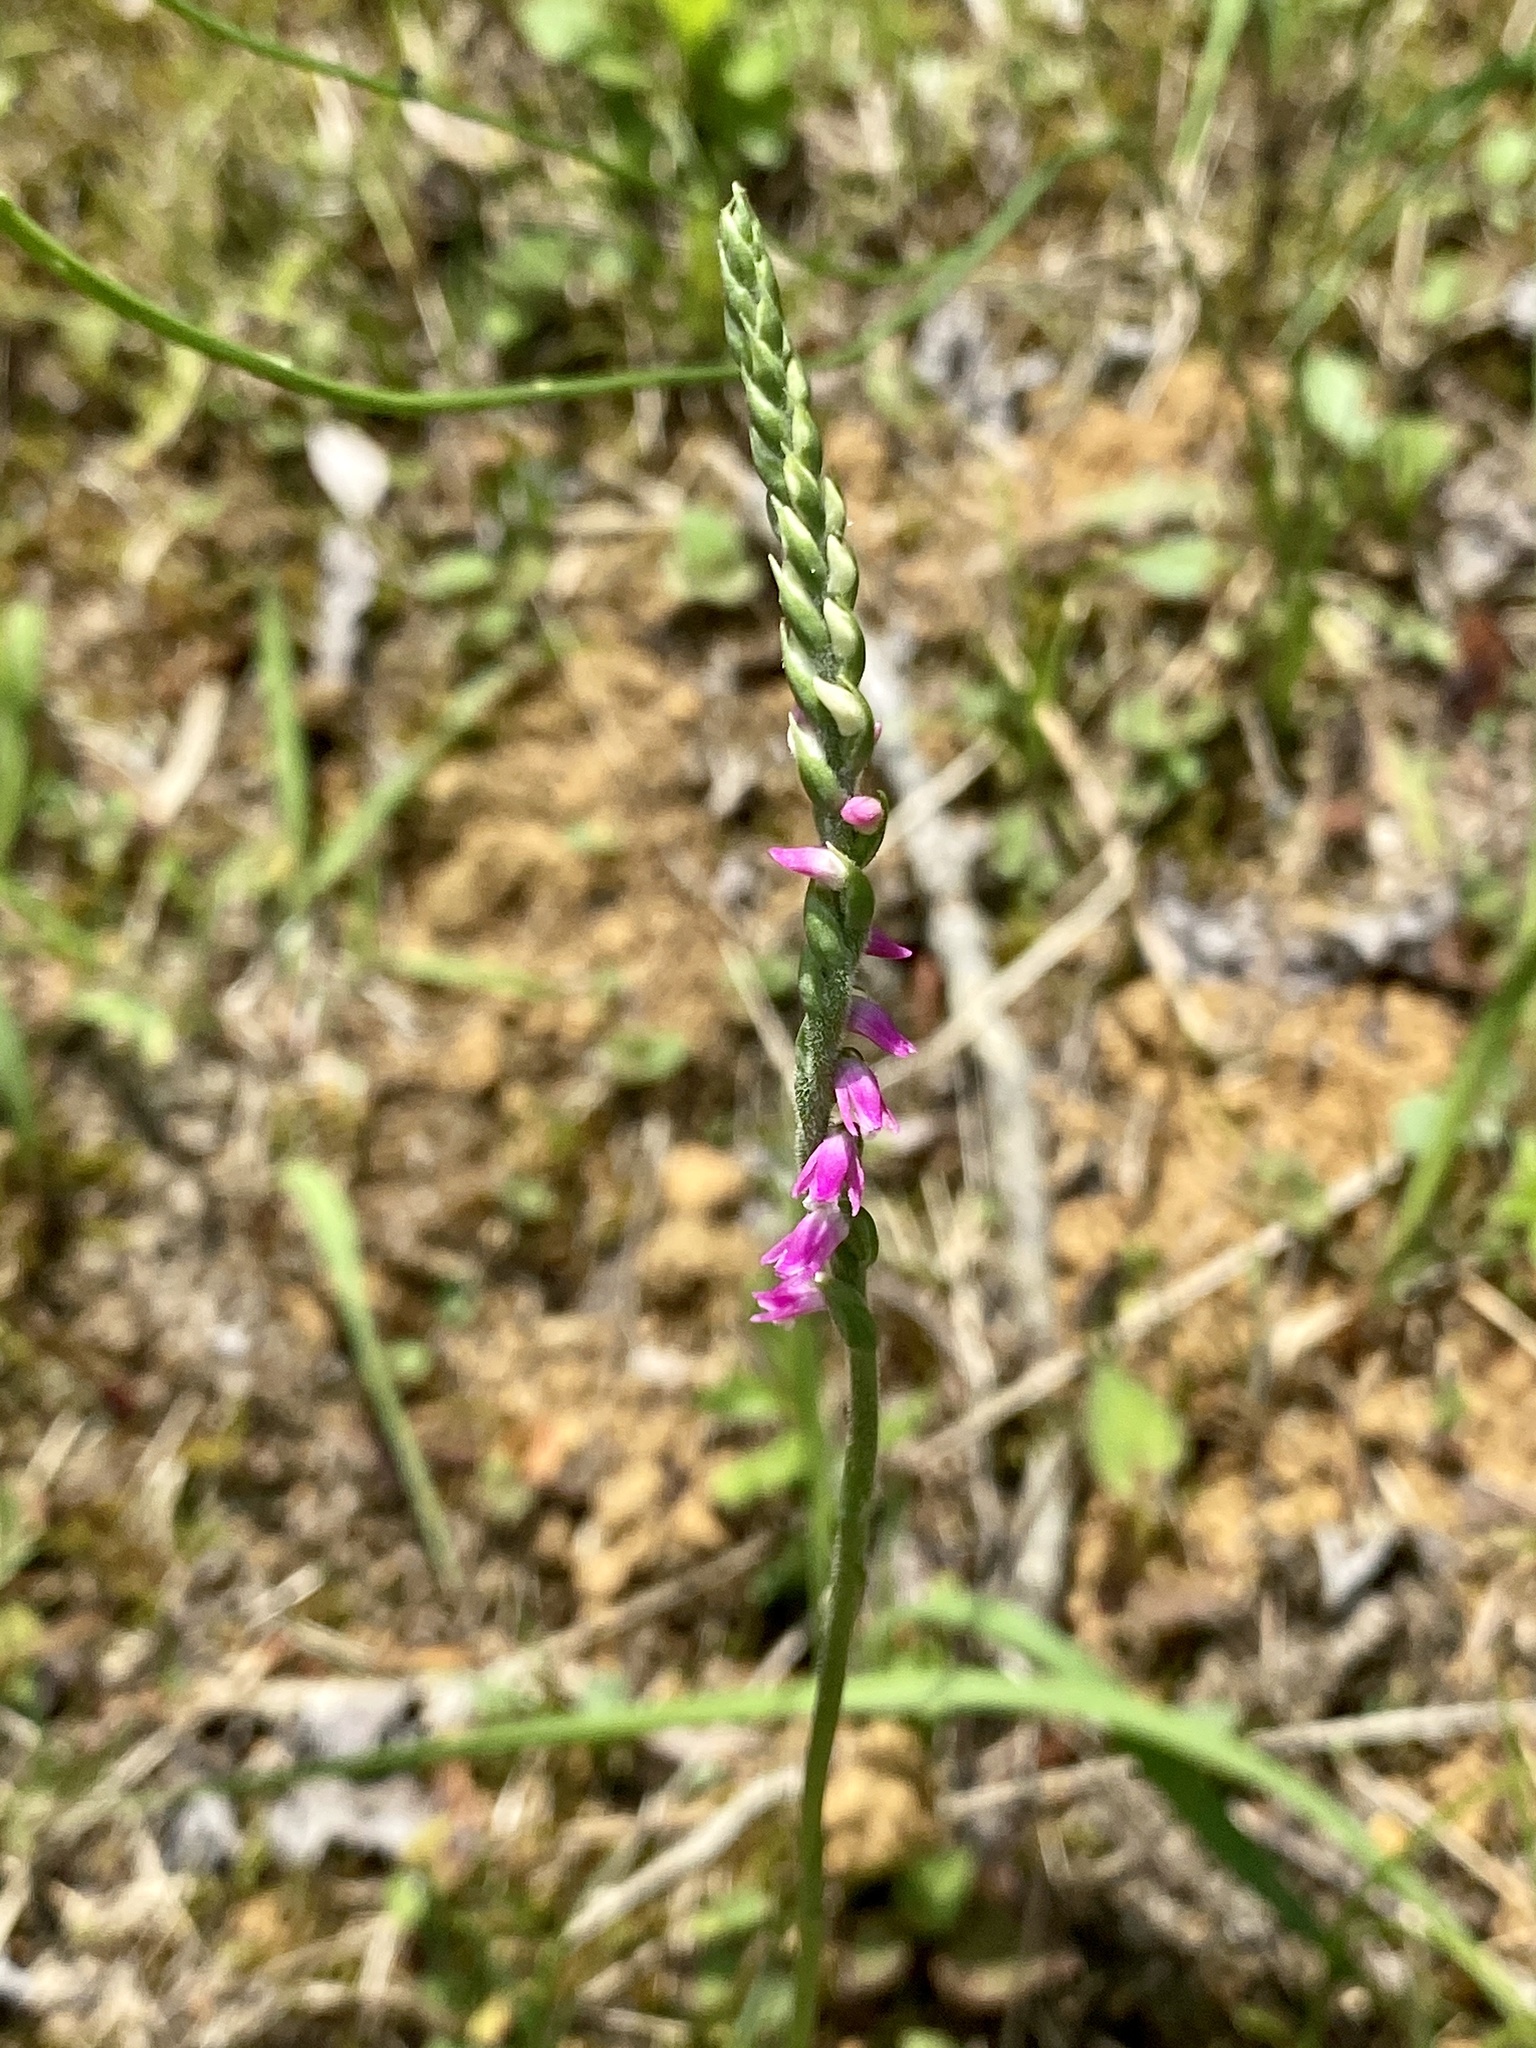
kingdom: Plantae
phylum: Tracheophyta
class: Liliopsida
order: Asparagales
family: Orchidaceae
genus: Spiranthes
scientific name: Spiranthes australis
